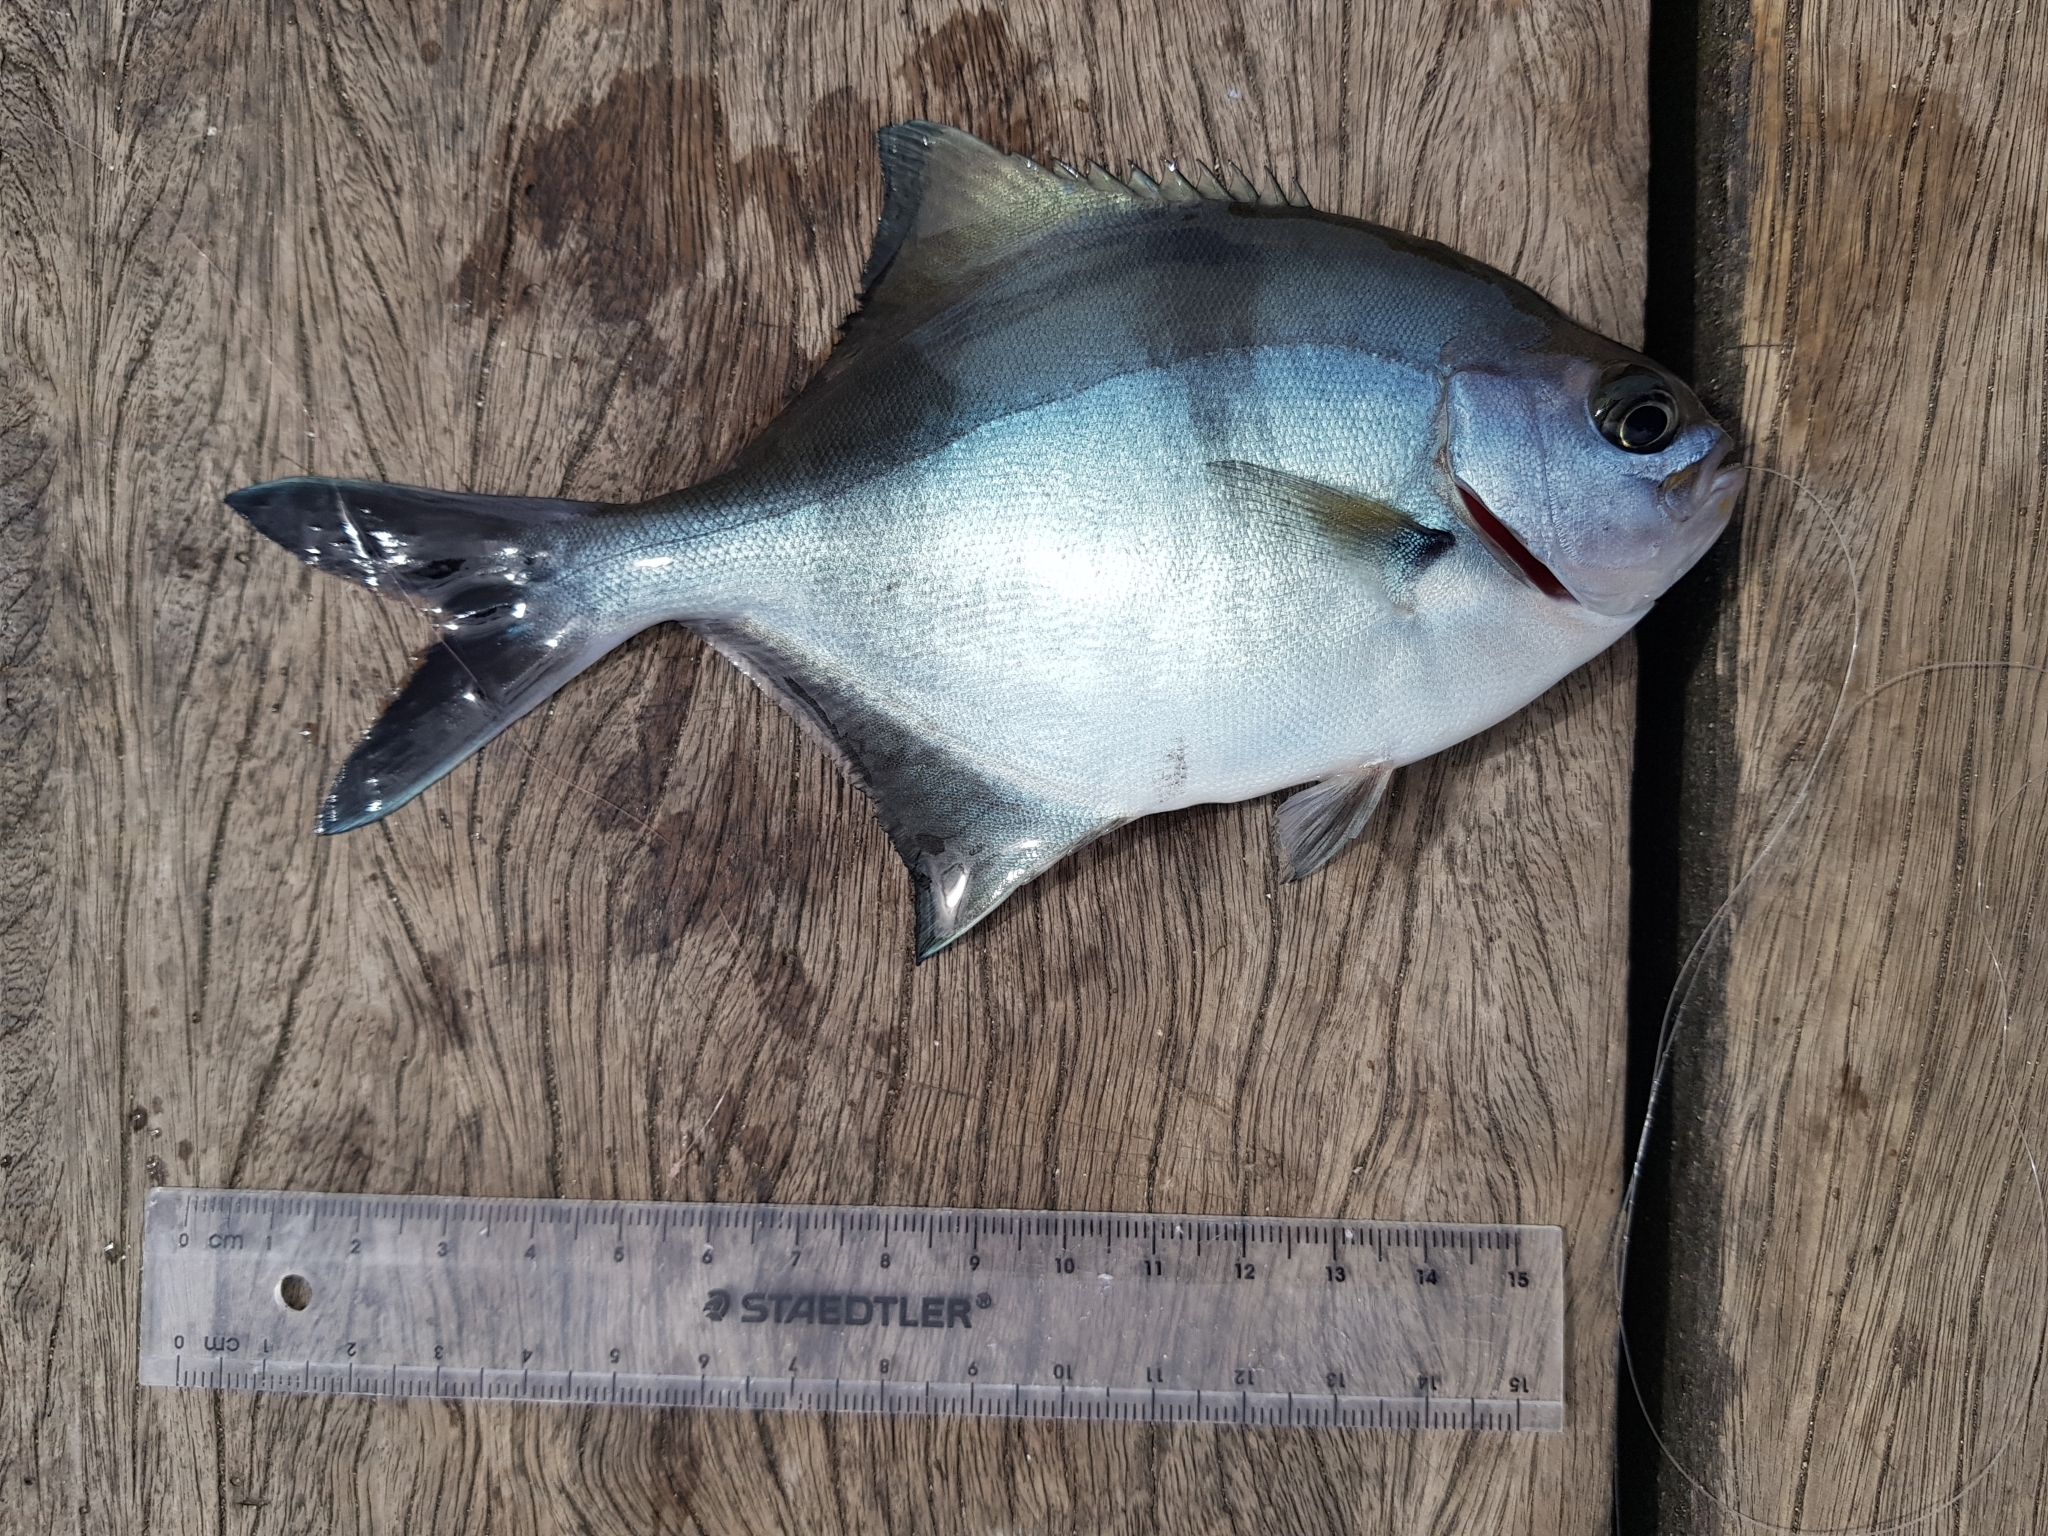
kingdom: Animalia
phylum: Chordata
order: Perciformes
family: Kyphosidae
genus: Scorpis
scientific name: Scorpis aequipinnis
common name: Sea sweep
